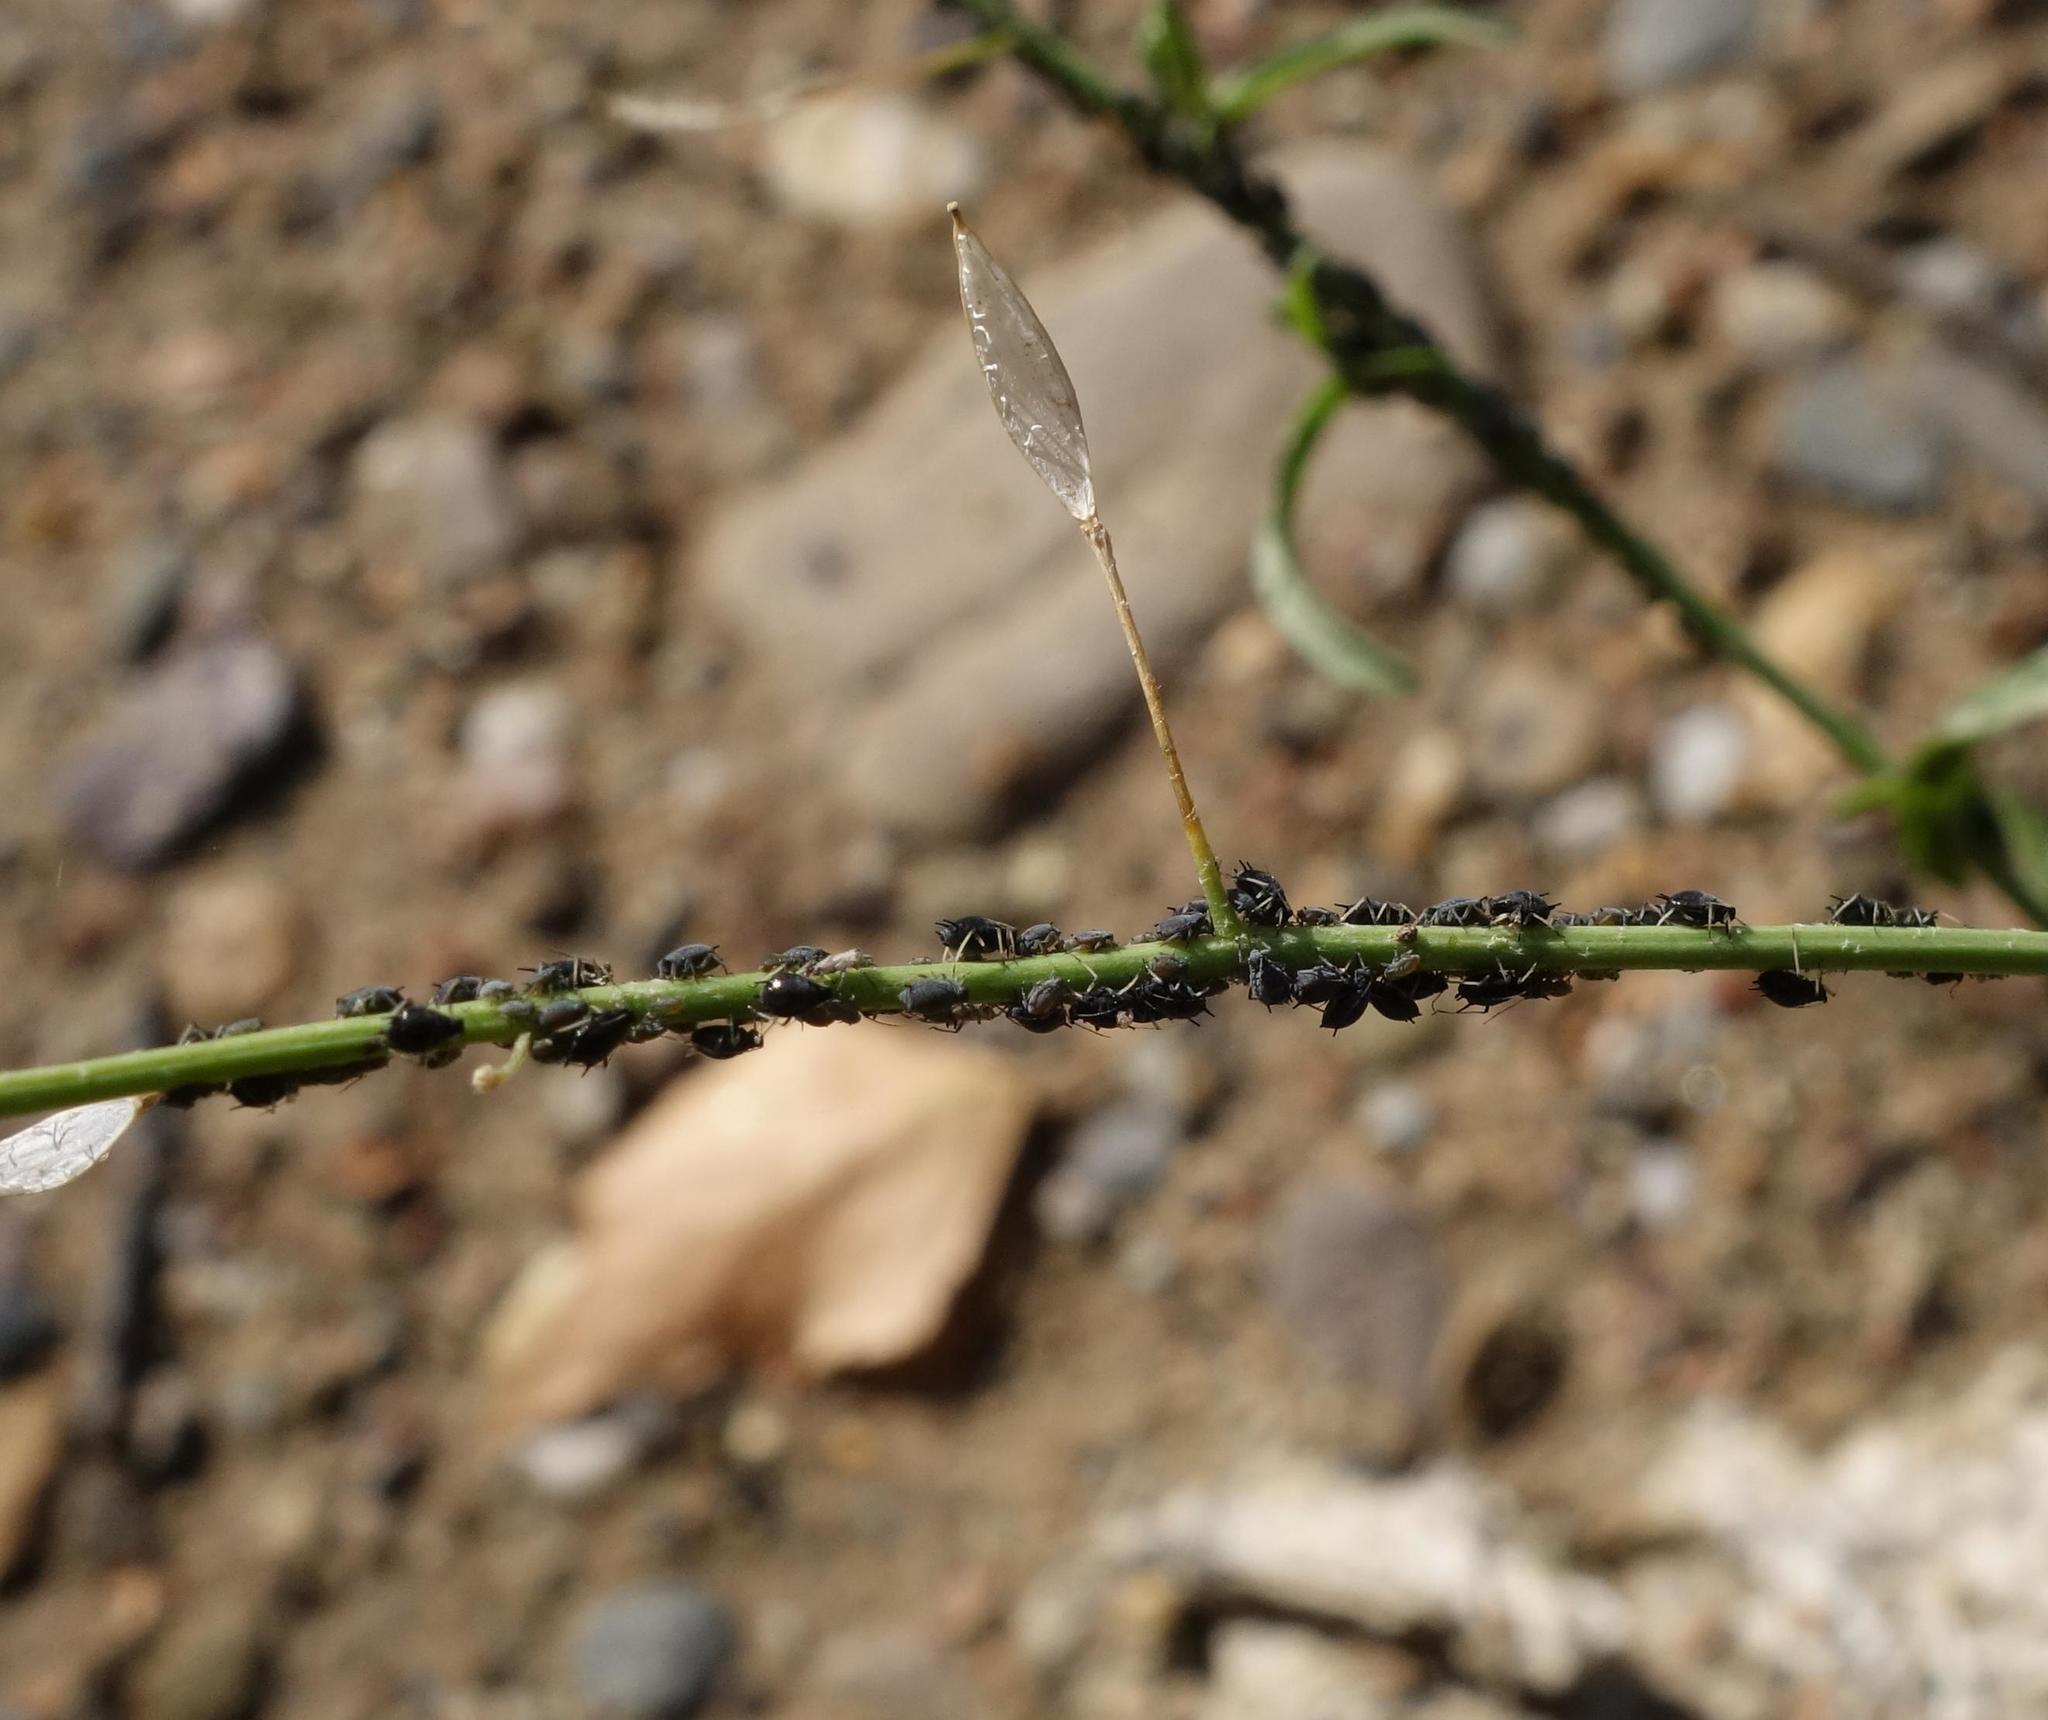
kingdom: Animalia
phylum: Arthropoda
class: Insecta
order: Hemiptera
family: Aphididae
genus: Aphis
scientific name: Aphis craccivora
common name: Cowpea aphid
